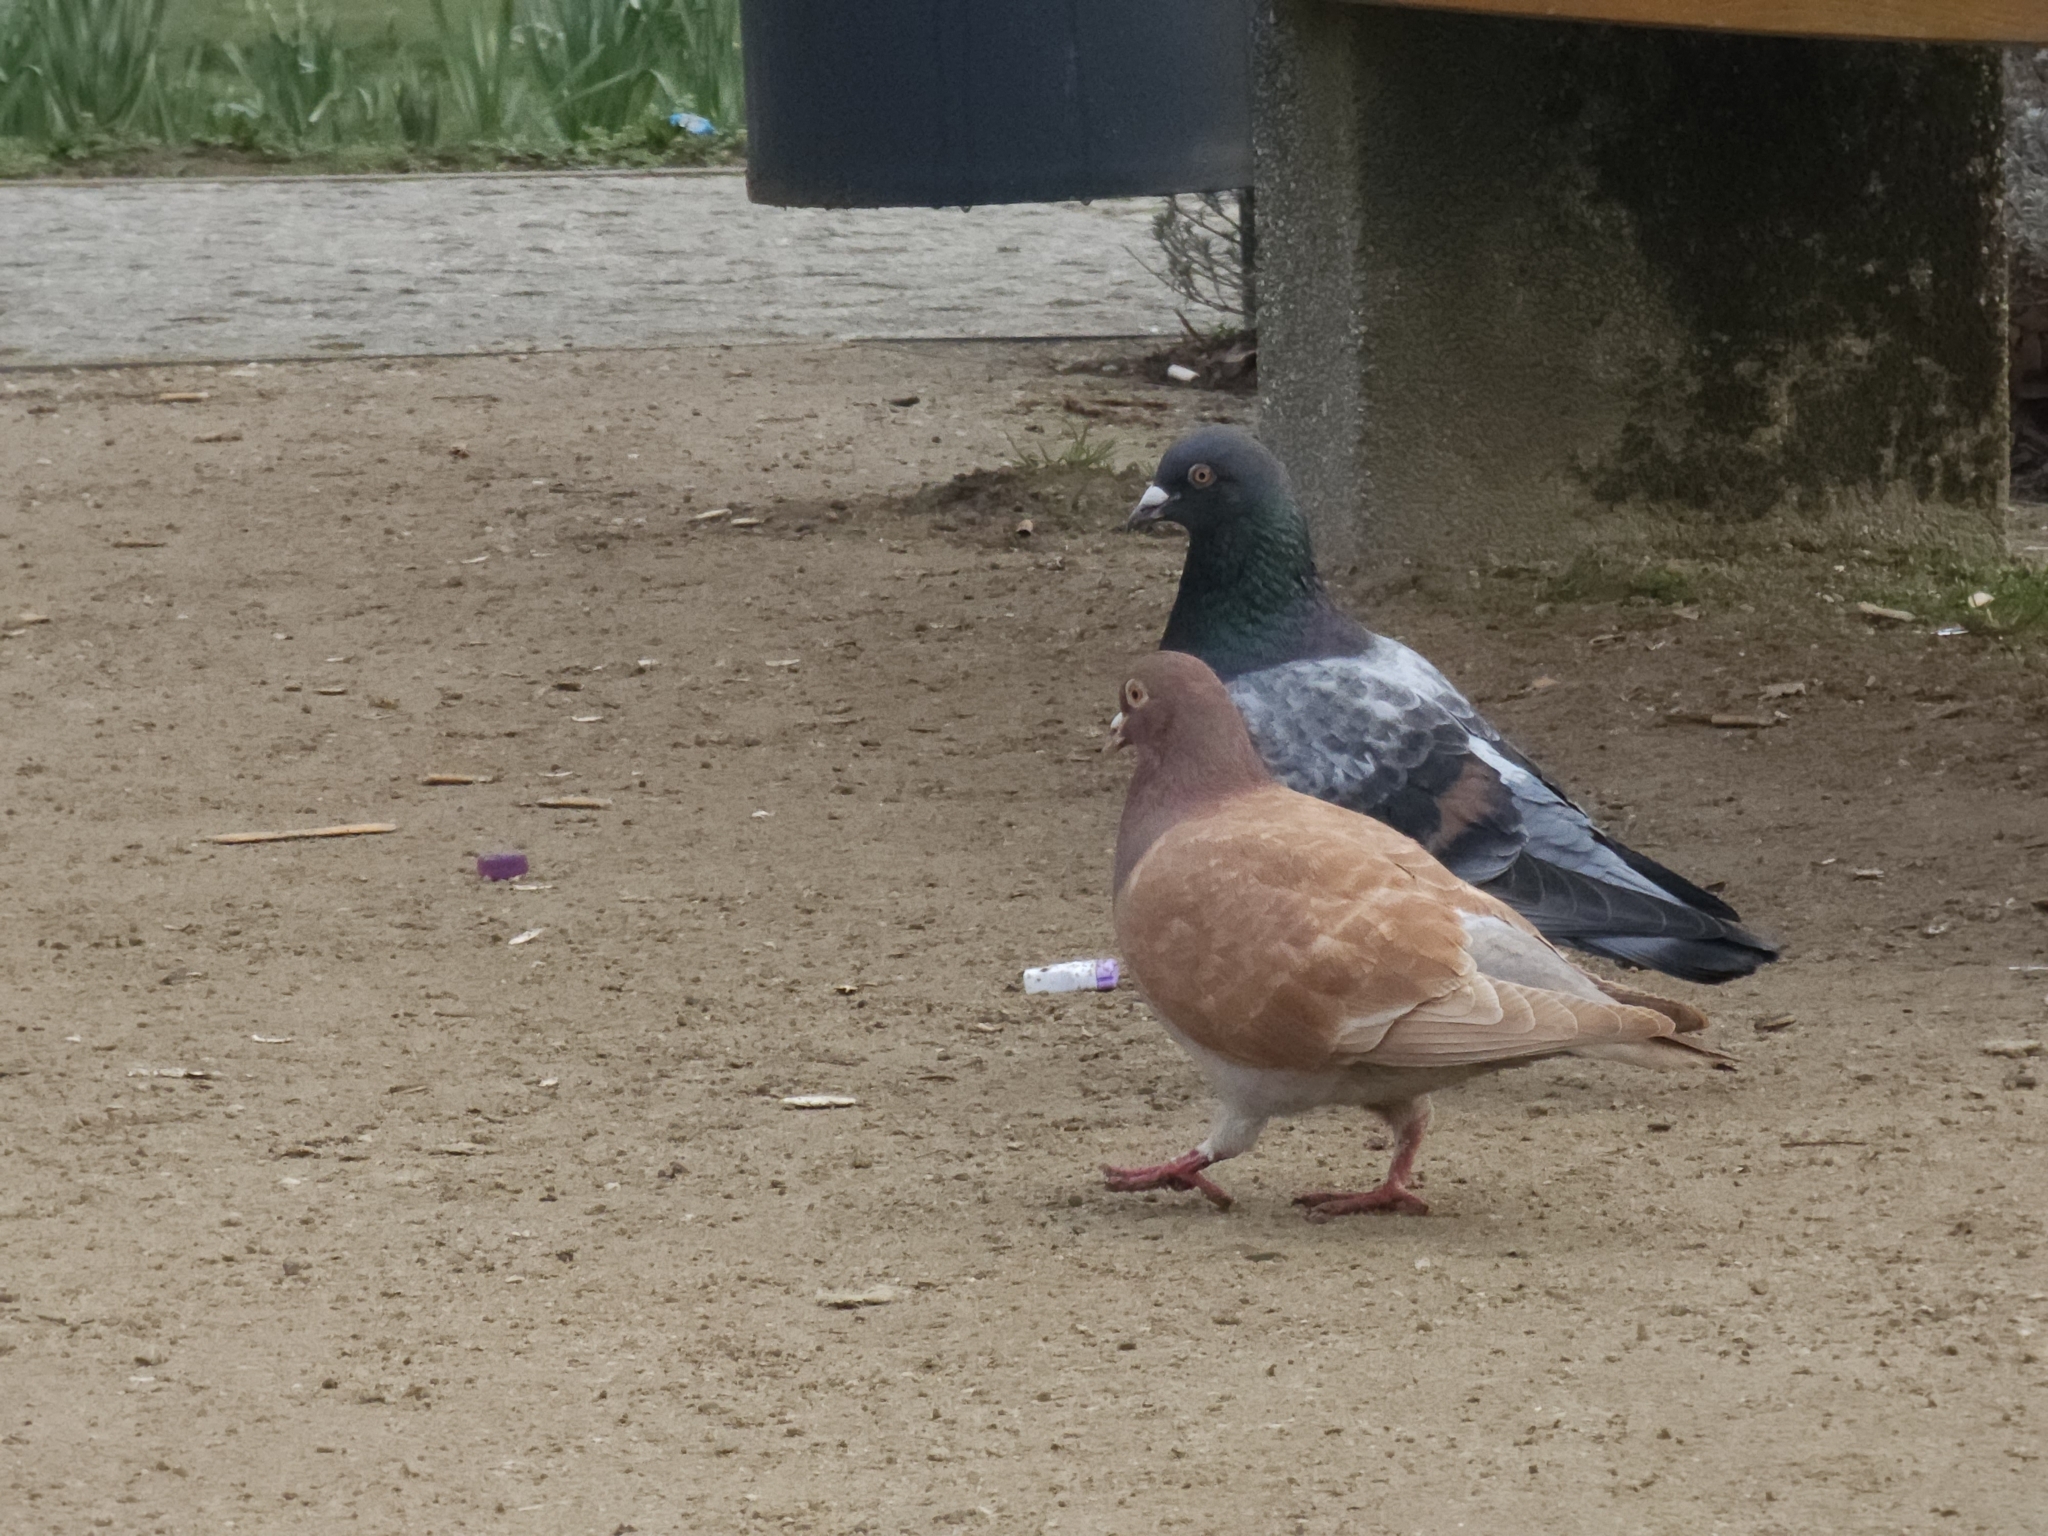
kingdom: Animalia
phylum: Chordata
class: Aves
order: Columbiformes
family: Columbidae
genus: Columba
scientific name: Columba livia
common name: Rock pigeon
